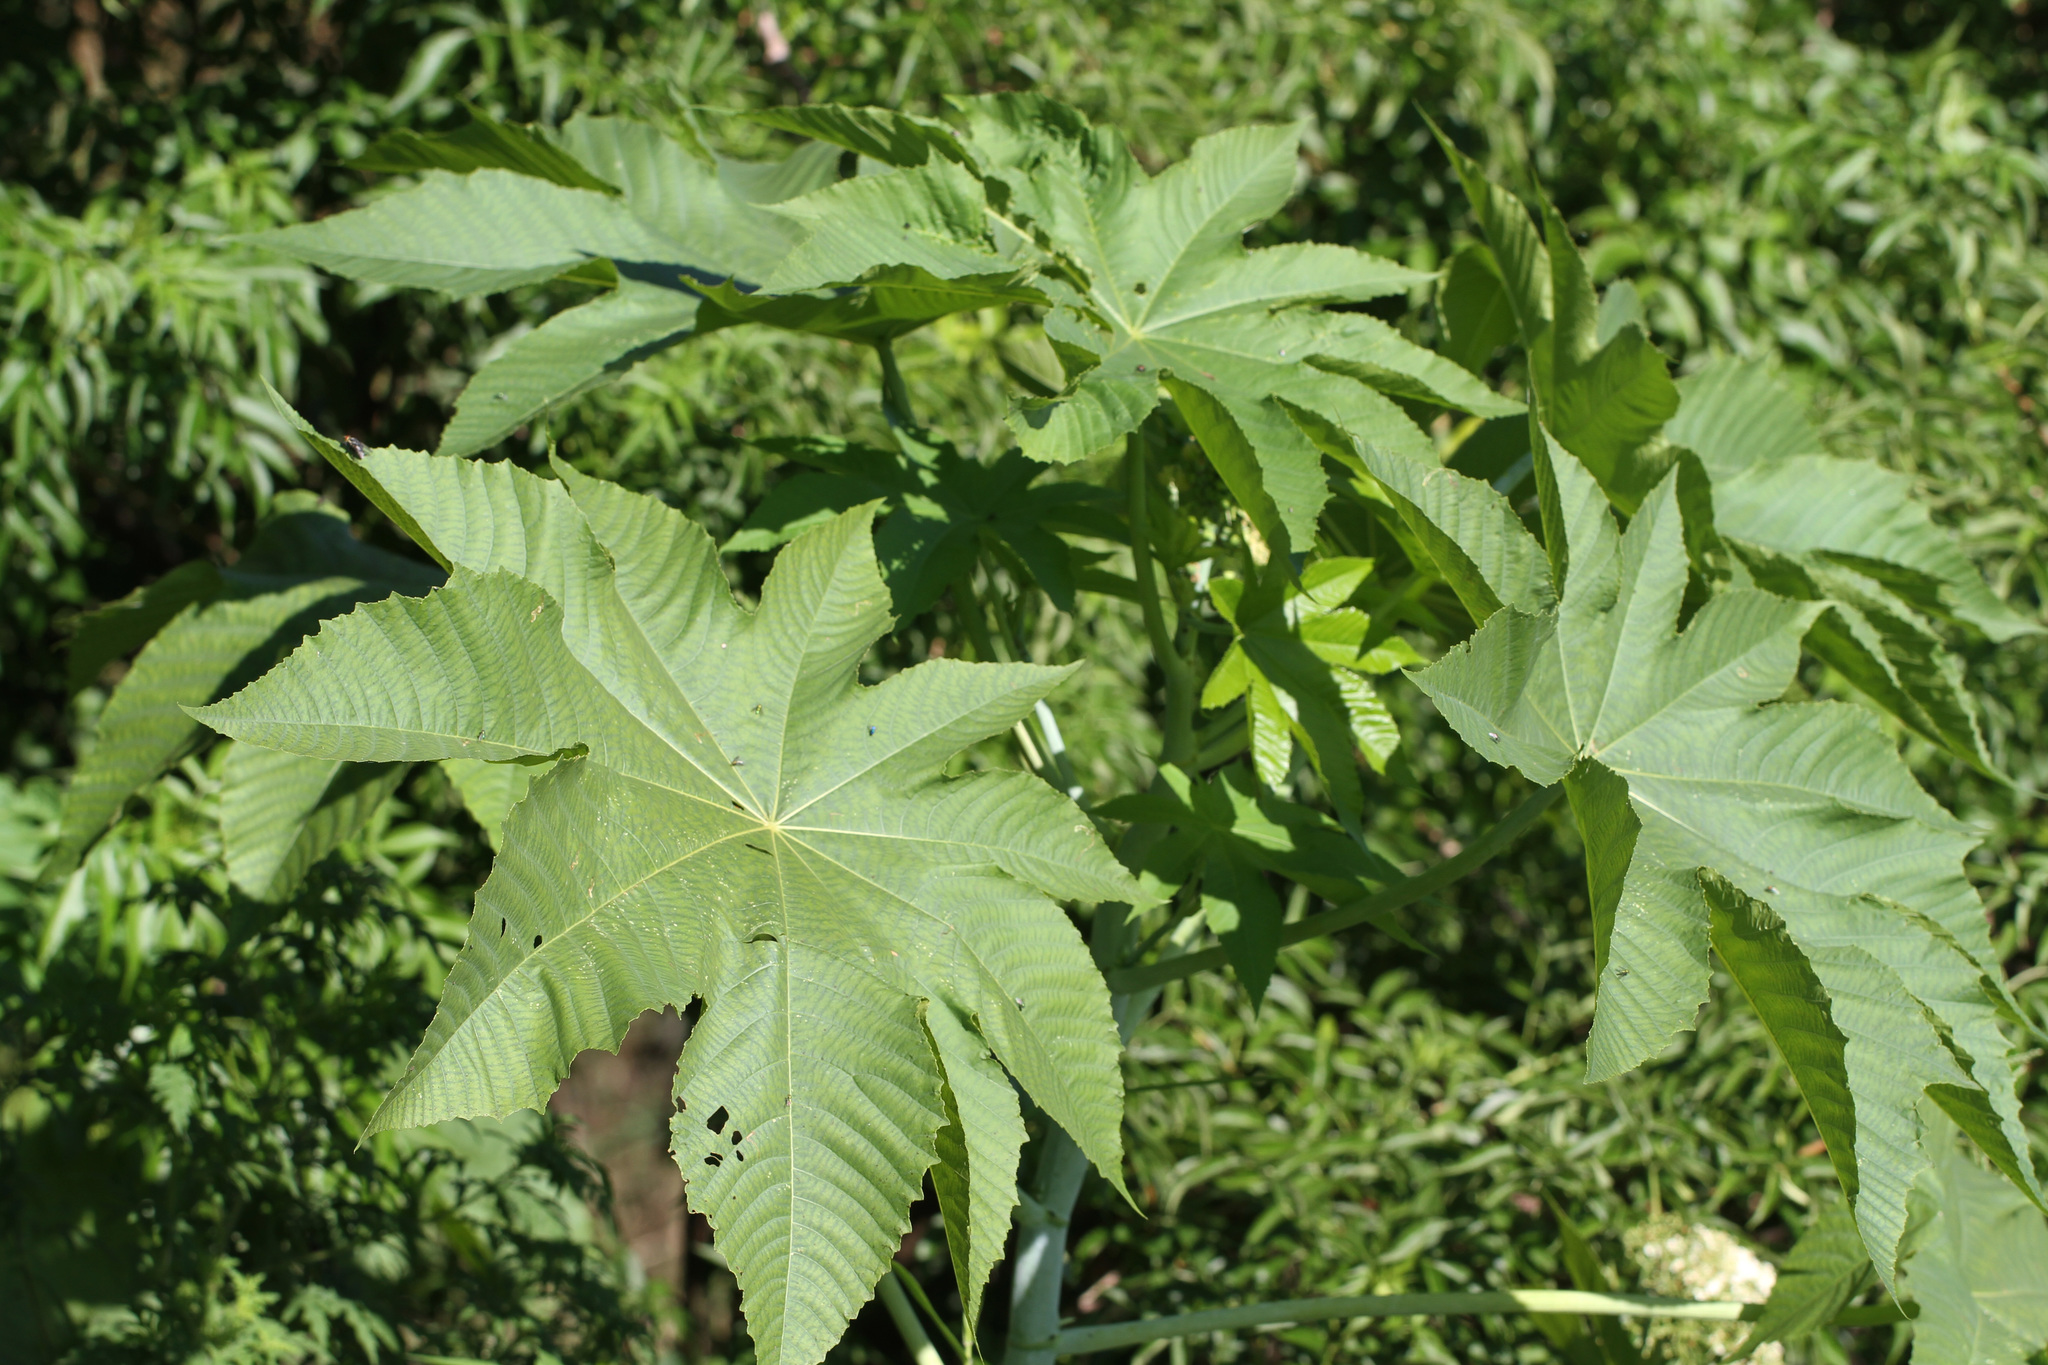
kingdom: Plantae
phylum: Tracheophyta
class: Magnoliopsida
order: Malpighiales
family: Euphorbiaceae
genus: Ricinus
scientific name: Ricinus communis
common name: Castor-oil-plant
